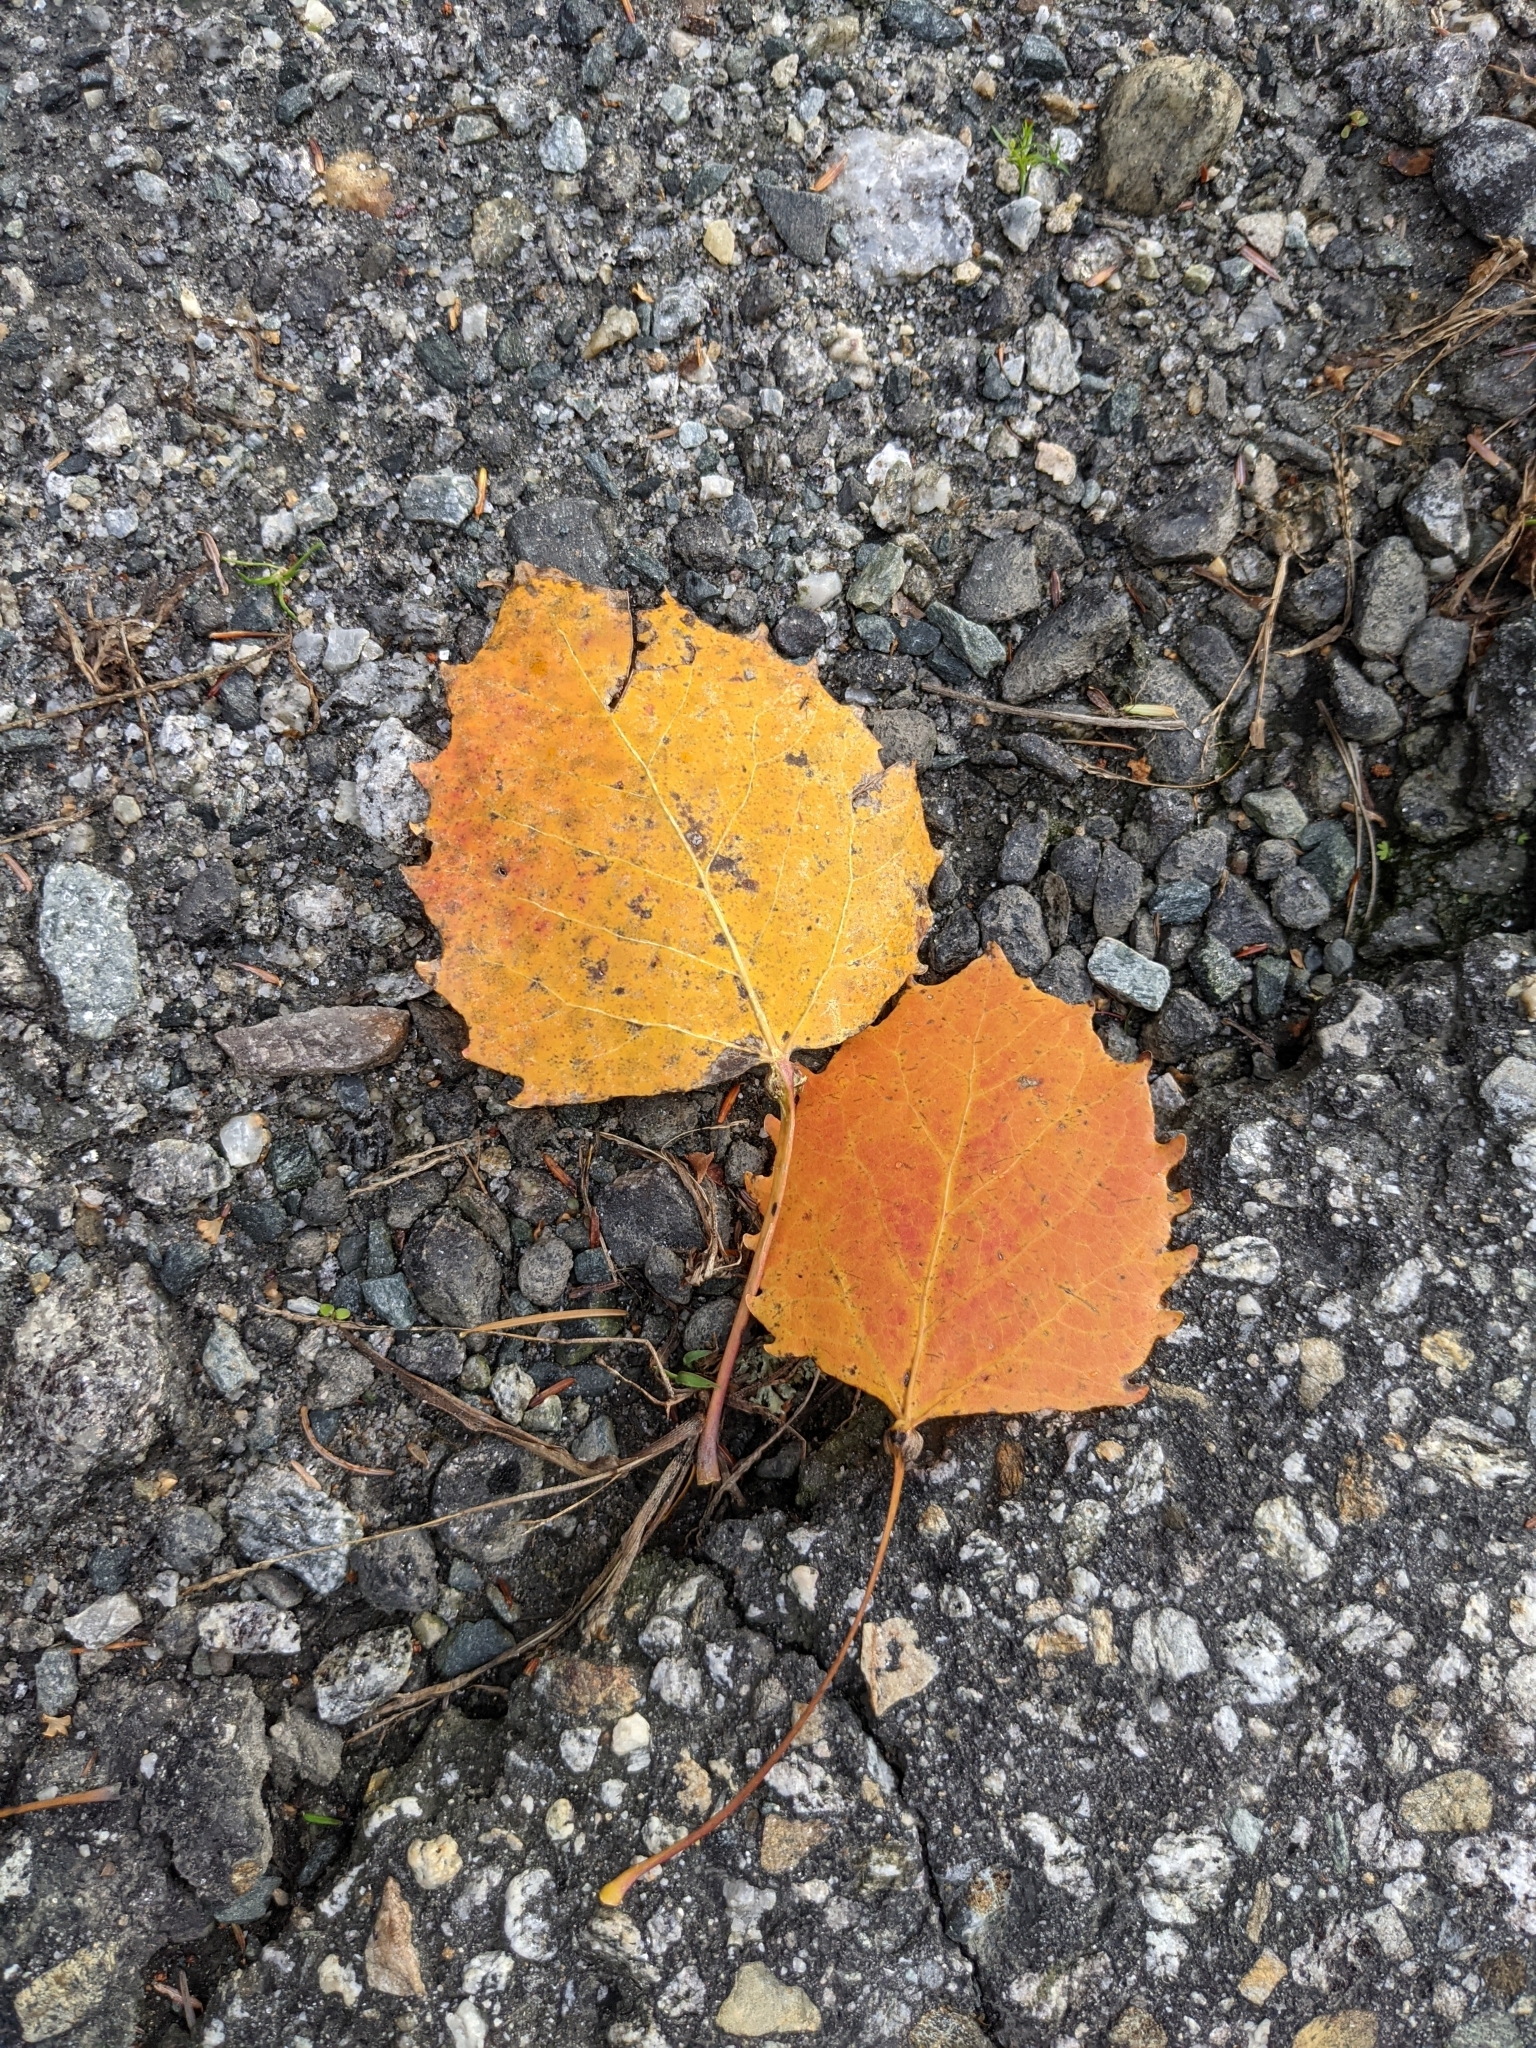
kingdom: Plantae
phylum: Tracheophyta
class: Magnoliopsida
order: Malpighiales
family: Salicaceae
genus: Populus
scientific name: Populus grandidentata
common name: Bigtooth aspen
